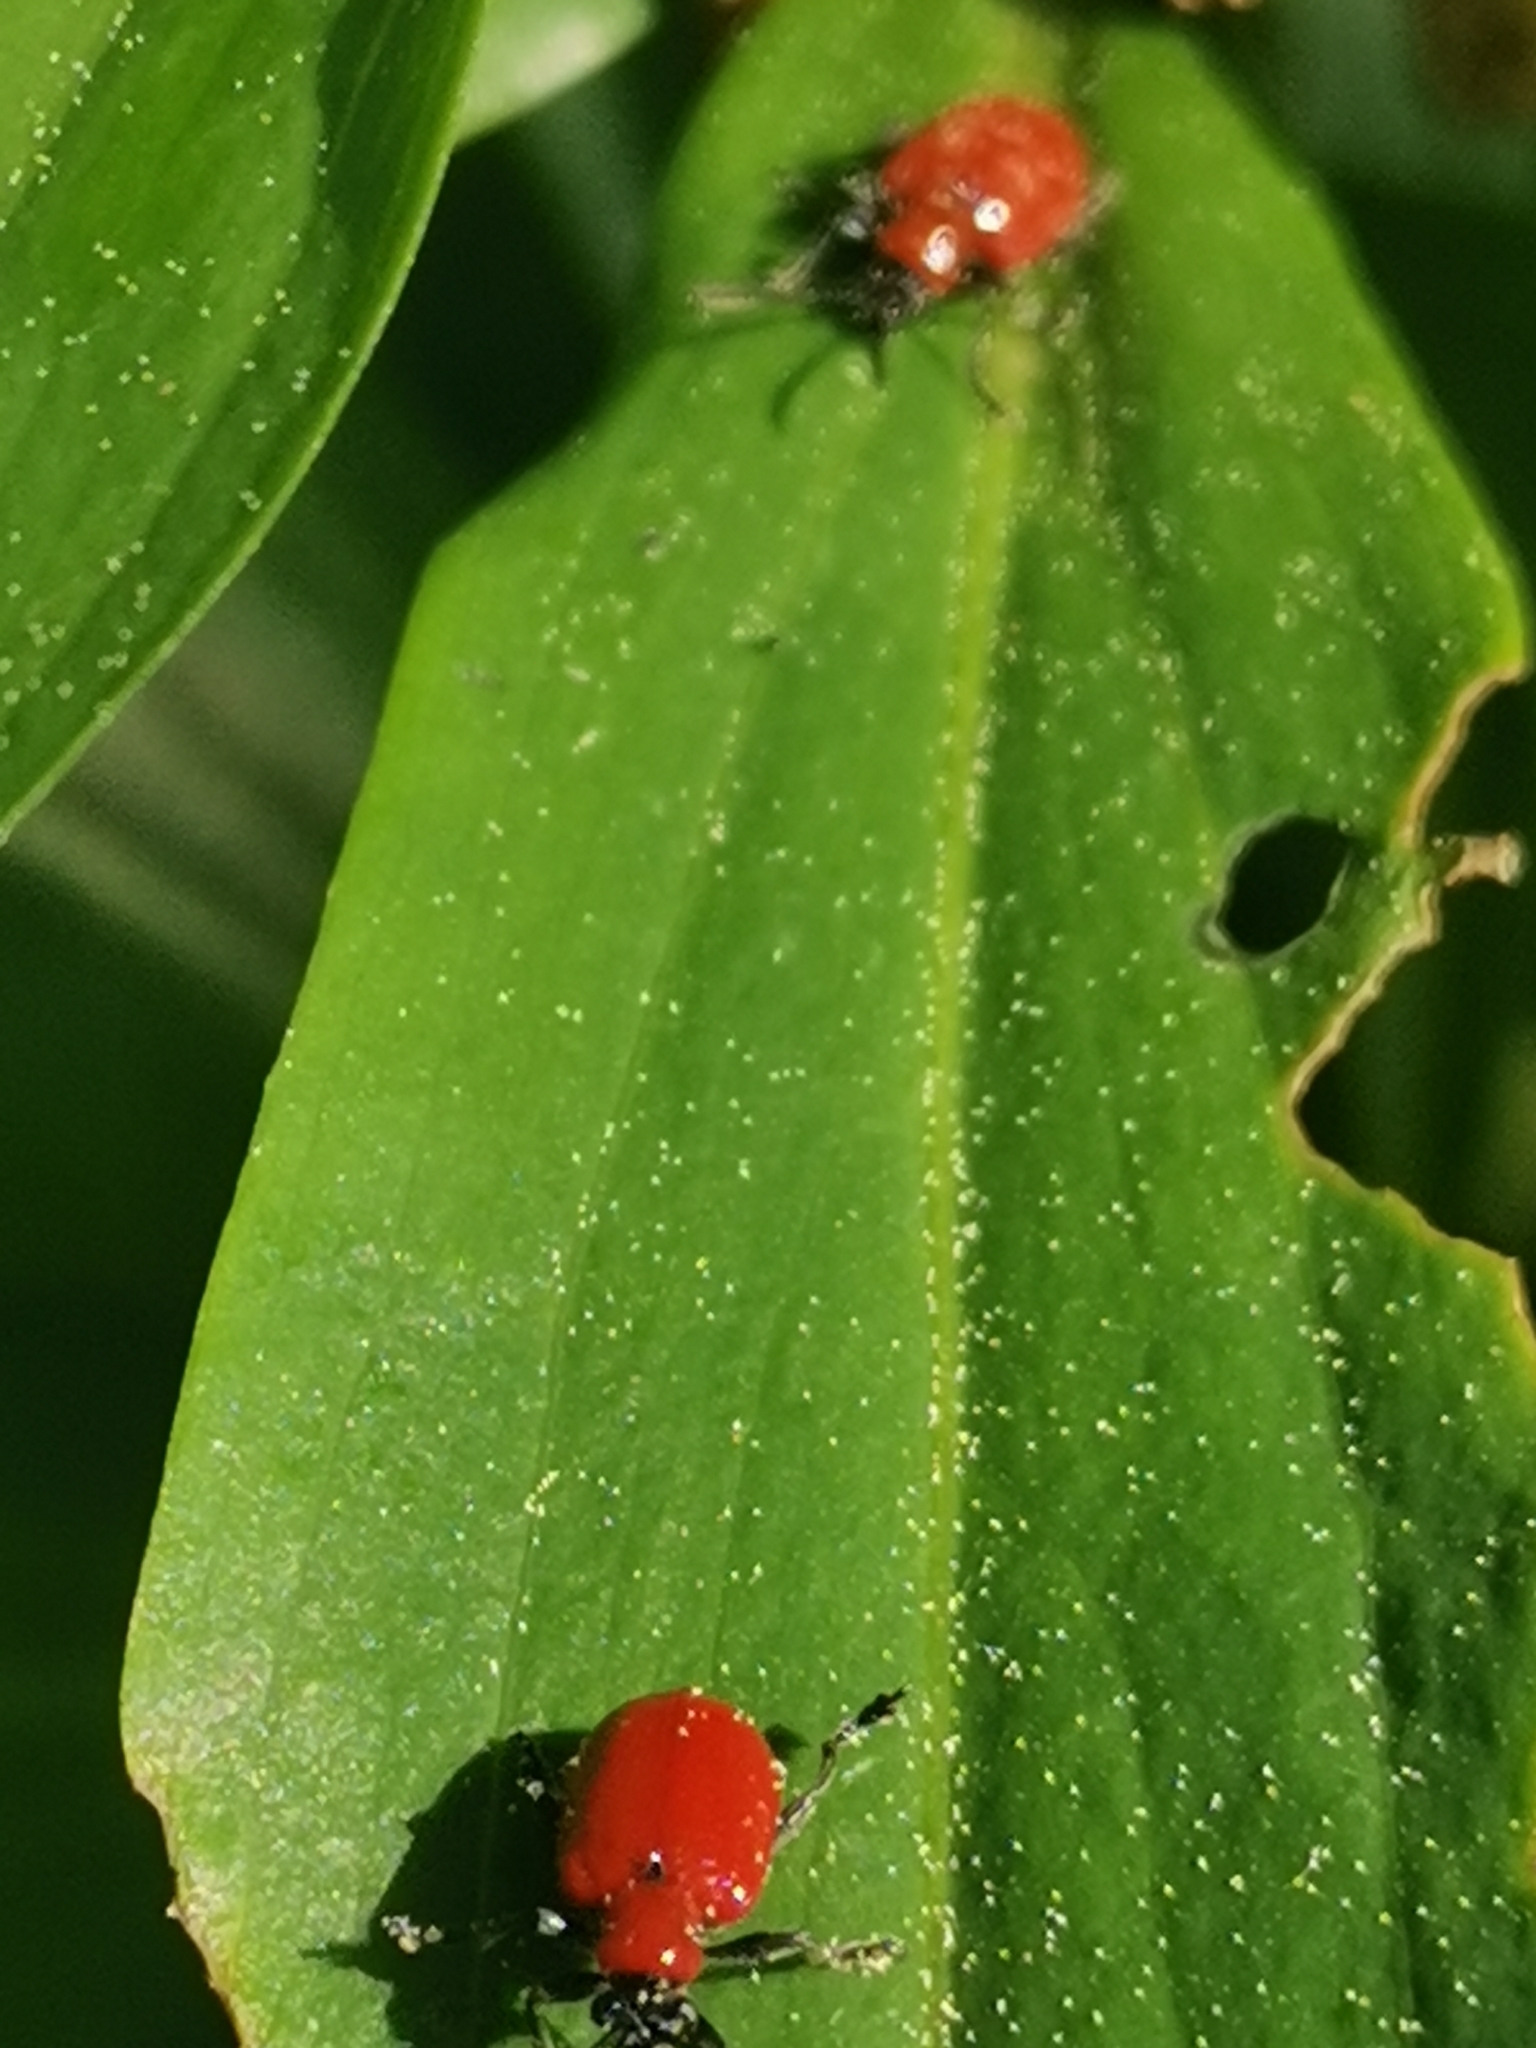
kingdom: Animalia
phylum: Arthropoda
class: Insecta
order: Coleoptera
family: Chrysomelidae
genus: Lilioceris
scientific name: Lilioceris lilii
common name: Lily beetle
